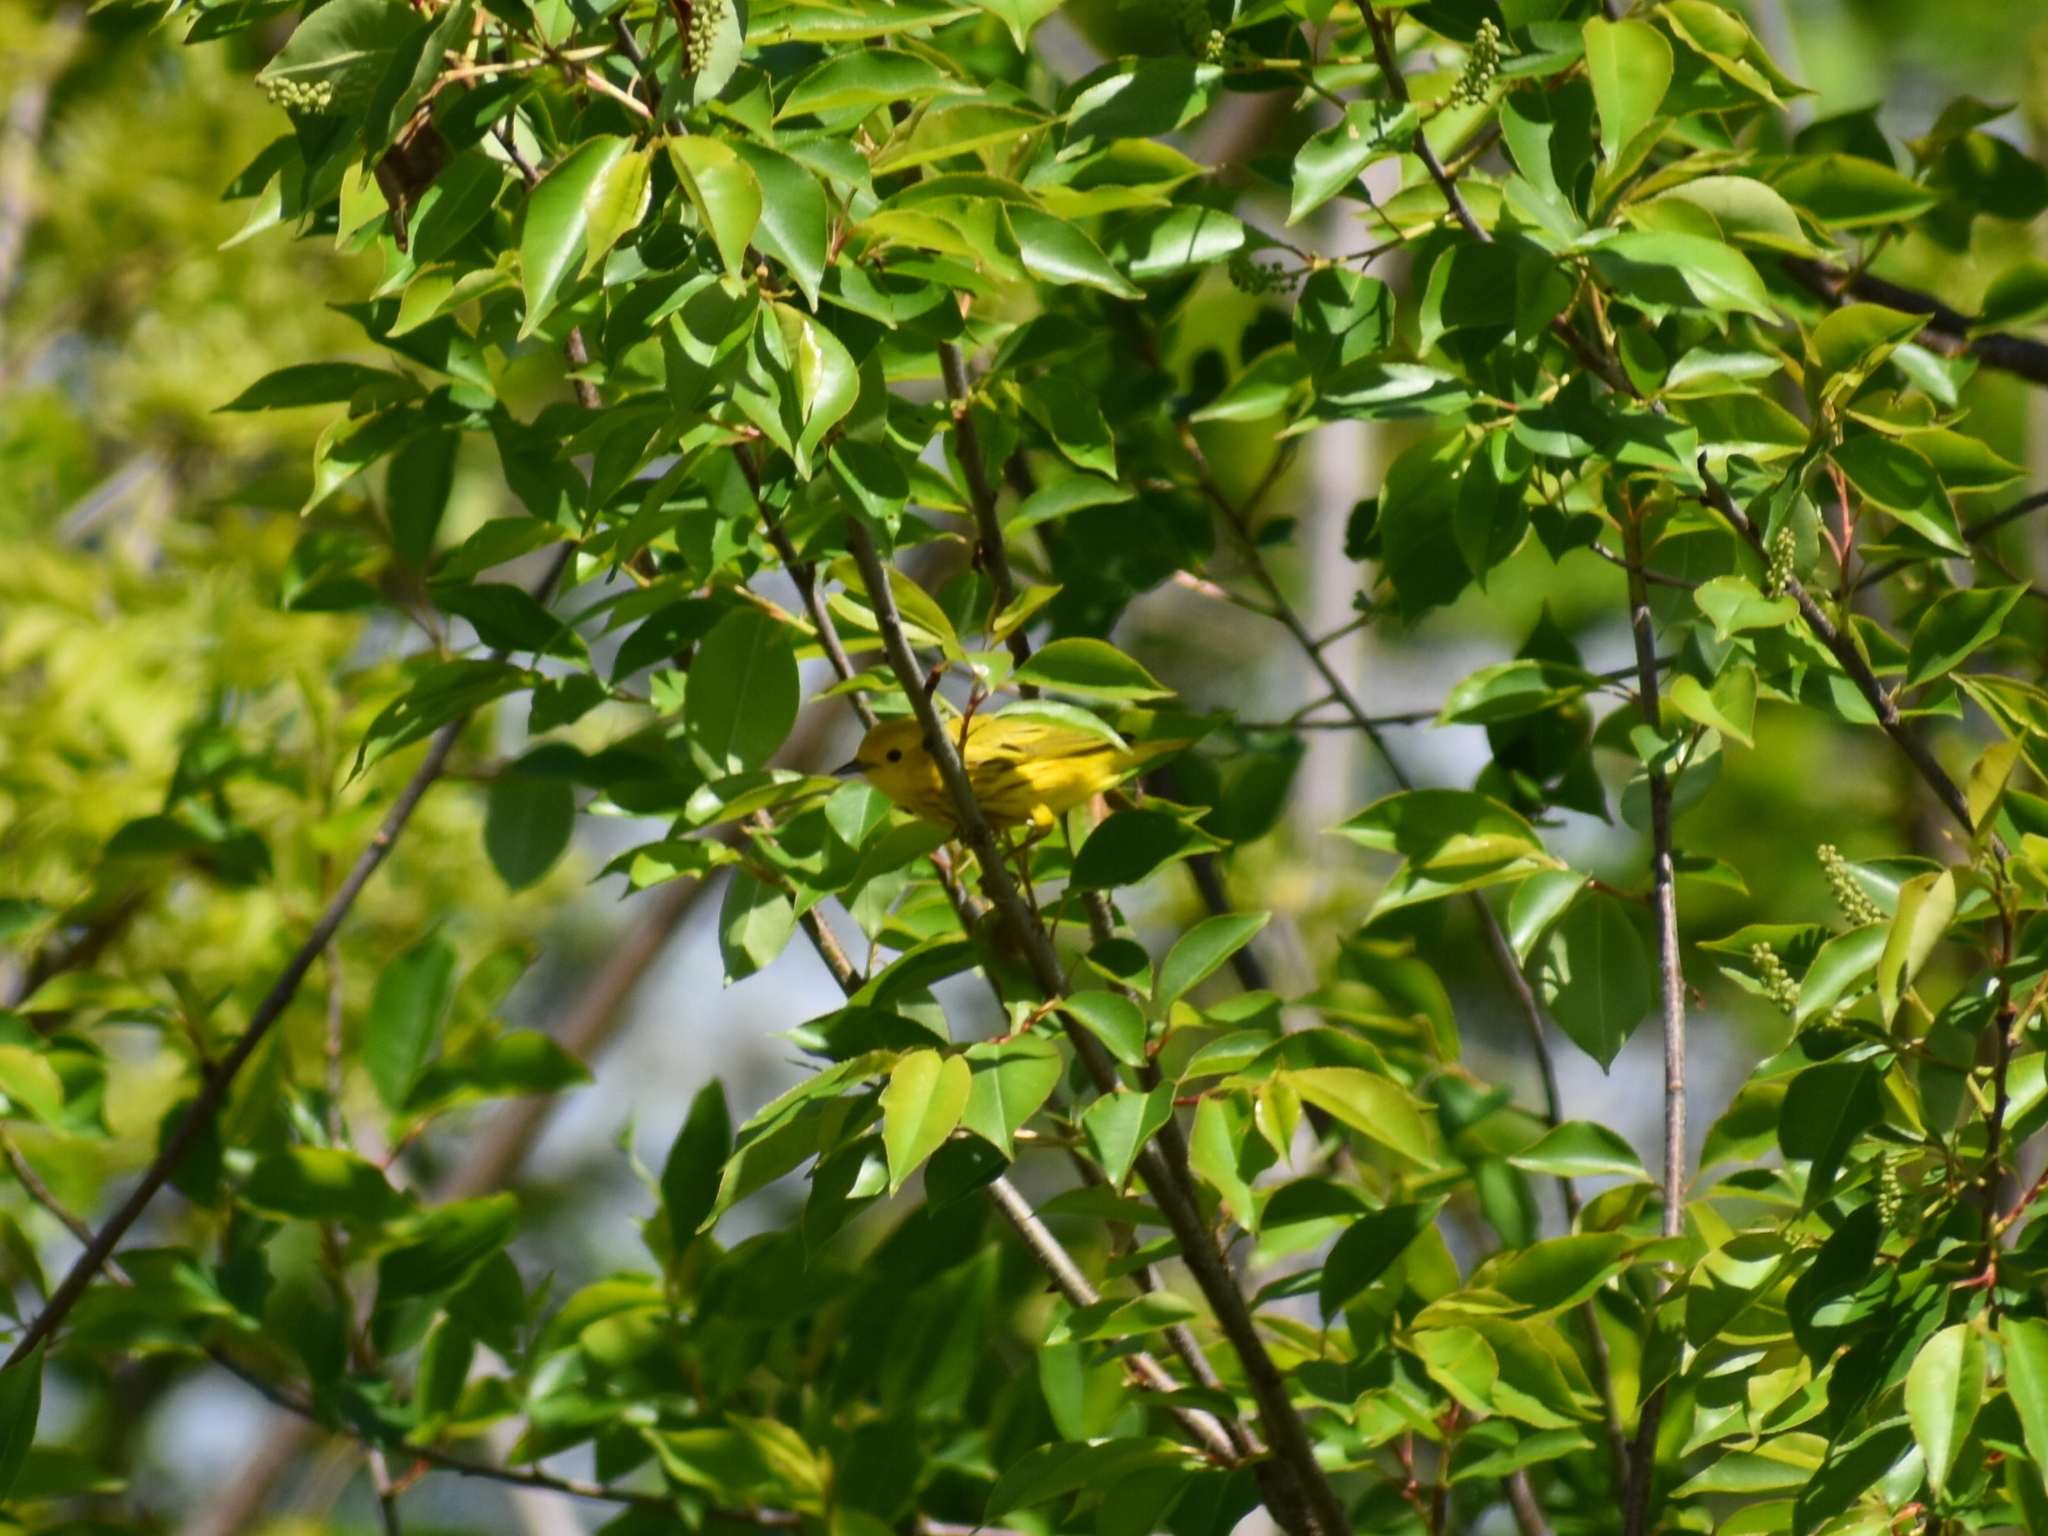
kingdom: Animalia
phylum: Chordata
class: Aves
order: Passeriformes
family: Parulidae
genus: Setophaga
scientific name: Setophaga petechia
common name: Yellow warbler
